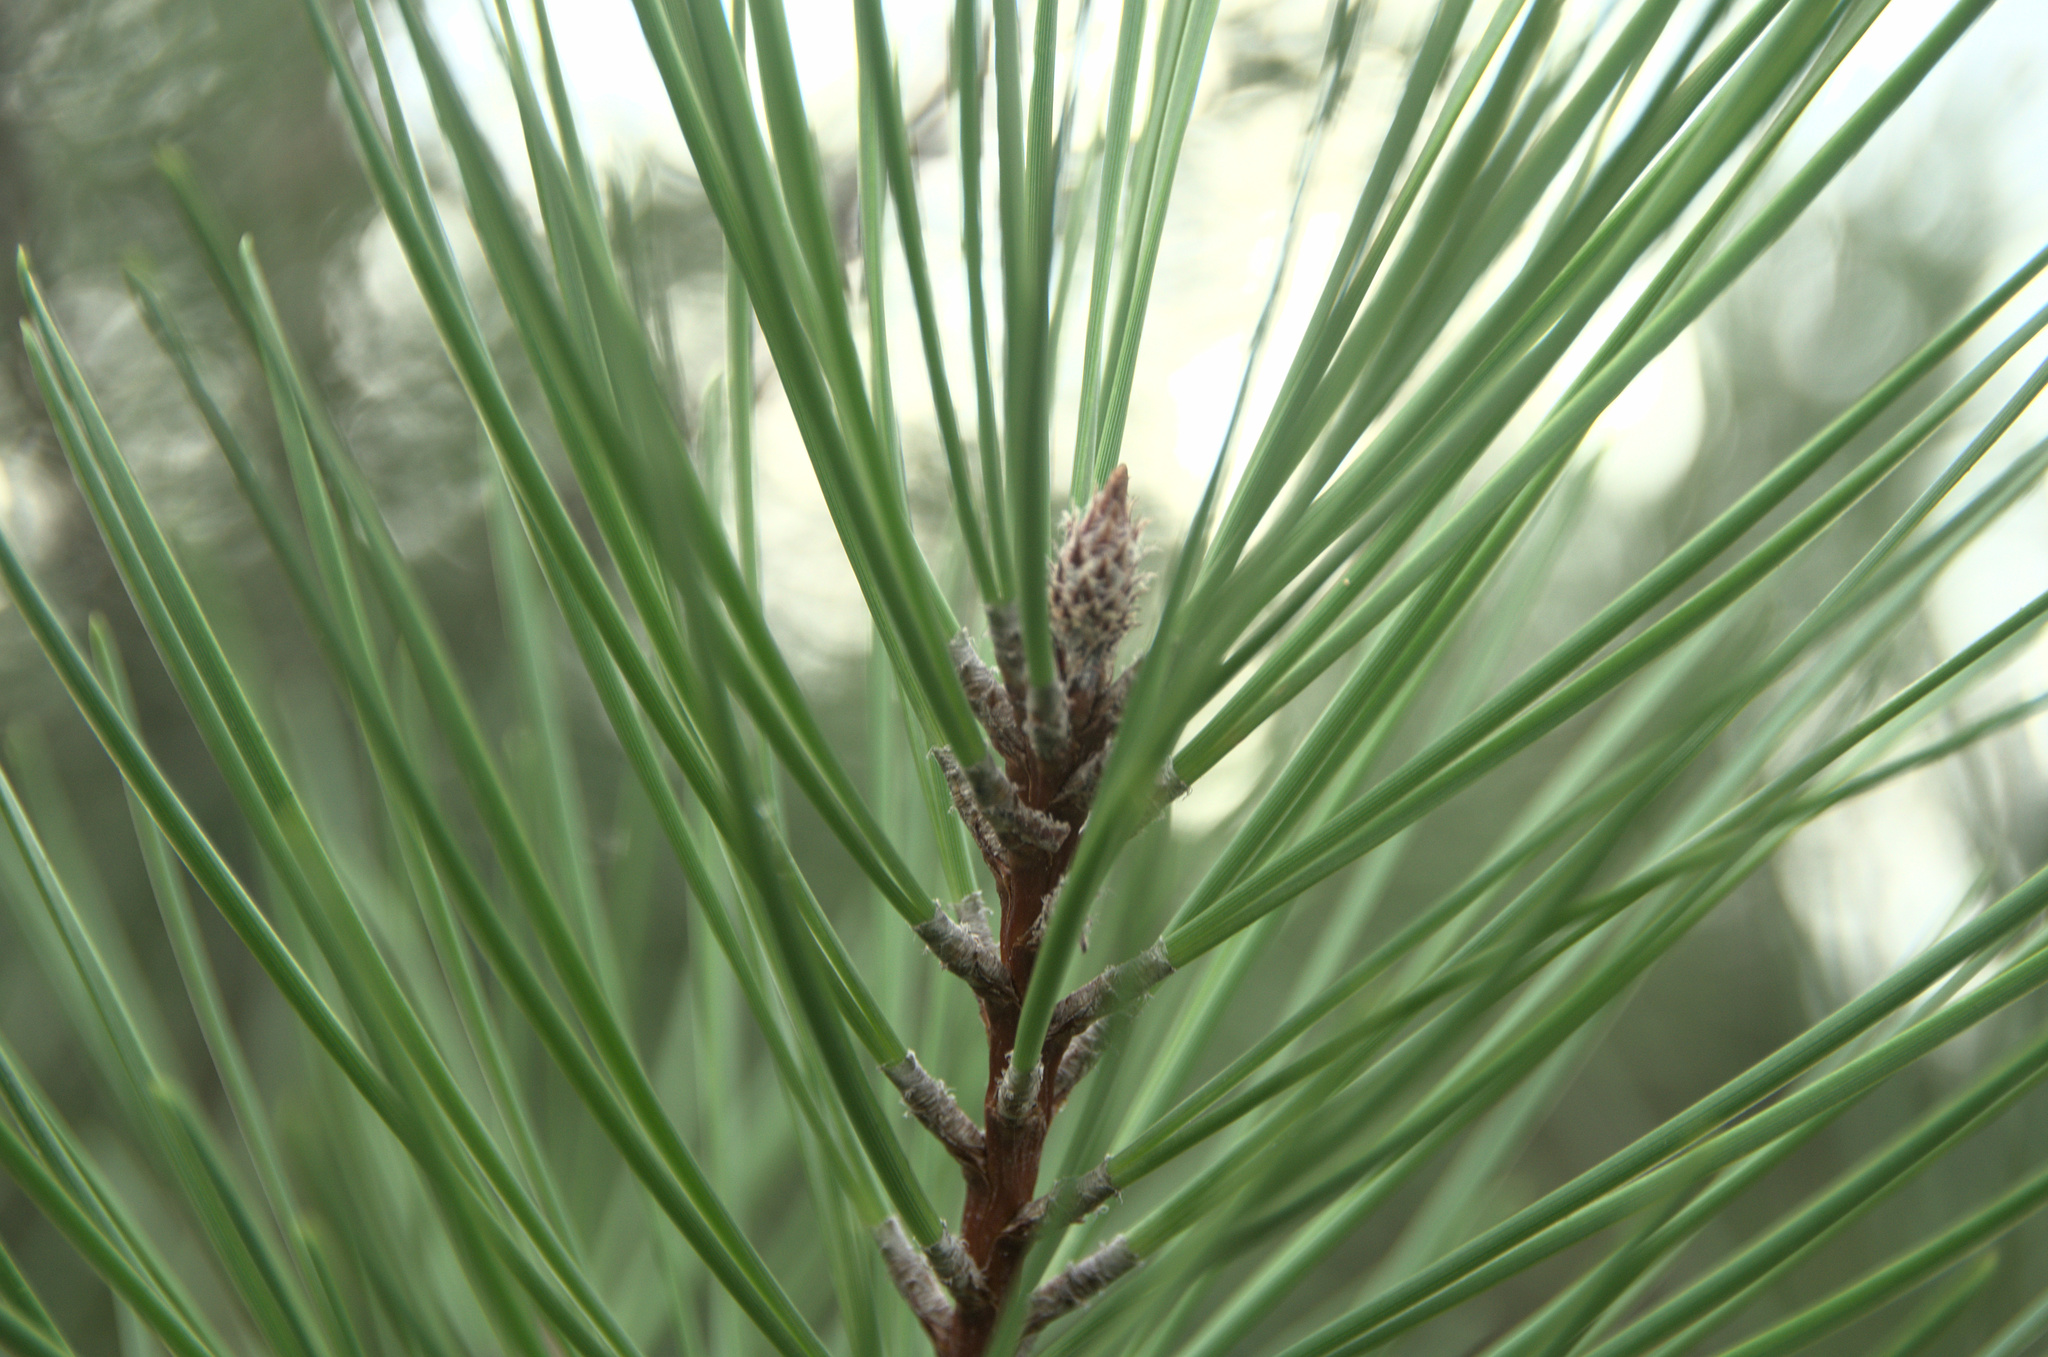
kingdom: Plantae
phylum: Tracheophyta
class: Pinopsida
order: Pinales
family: Pinaceae
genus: Pinus
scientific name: Pinus pinaster
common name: Maritime pine
